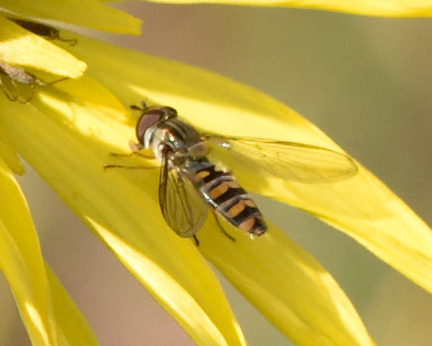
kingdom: Animalia
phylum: Arthropoda
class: Insecta
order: Diptera
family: Syrphidae
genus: Episyrphus
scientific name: Episyrphus balteatus
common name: Marmalade hoverfly
